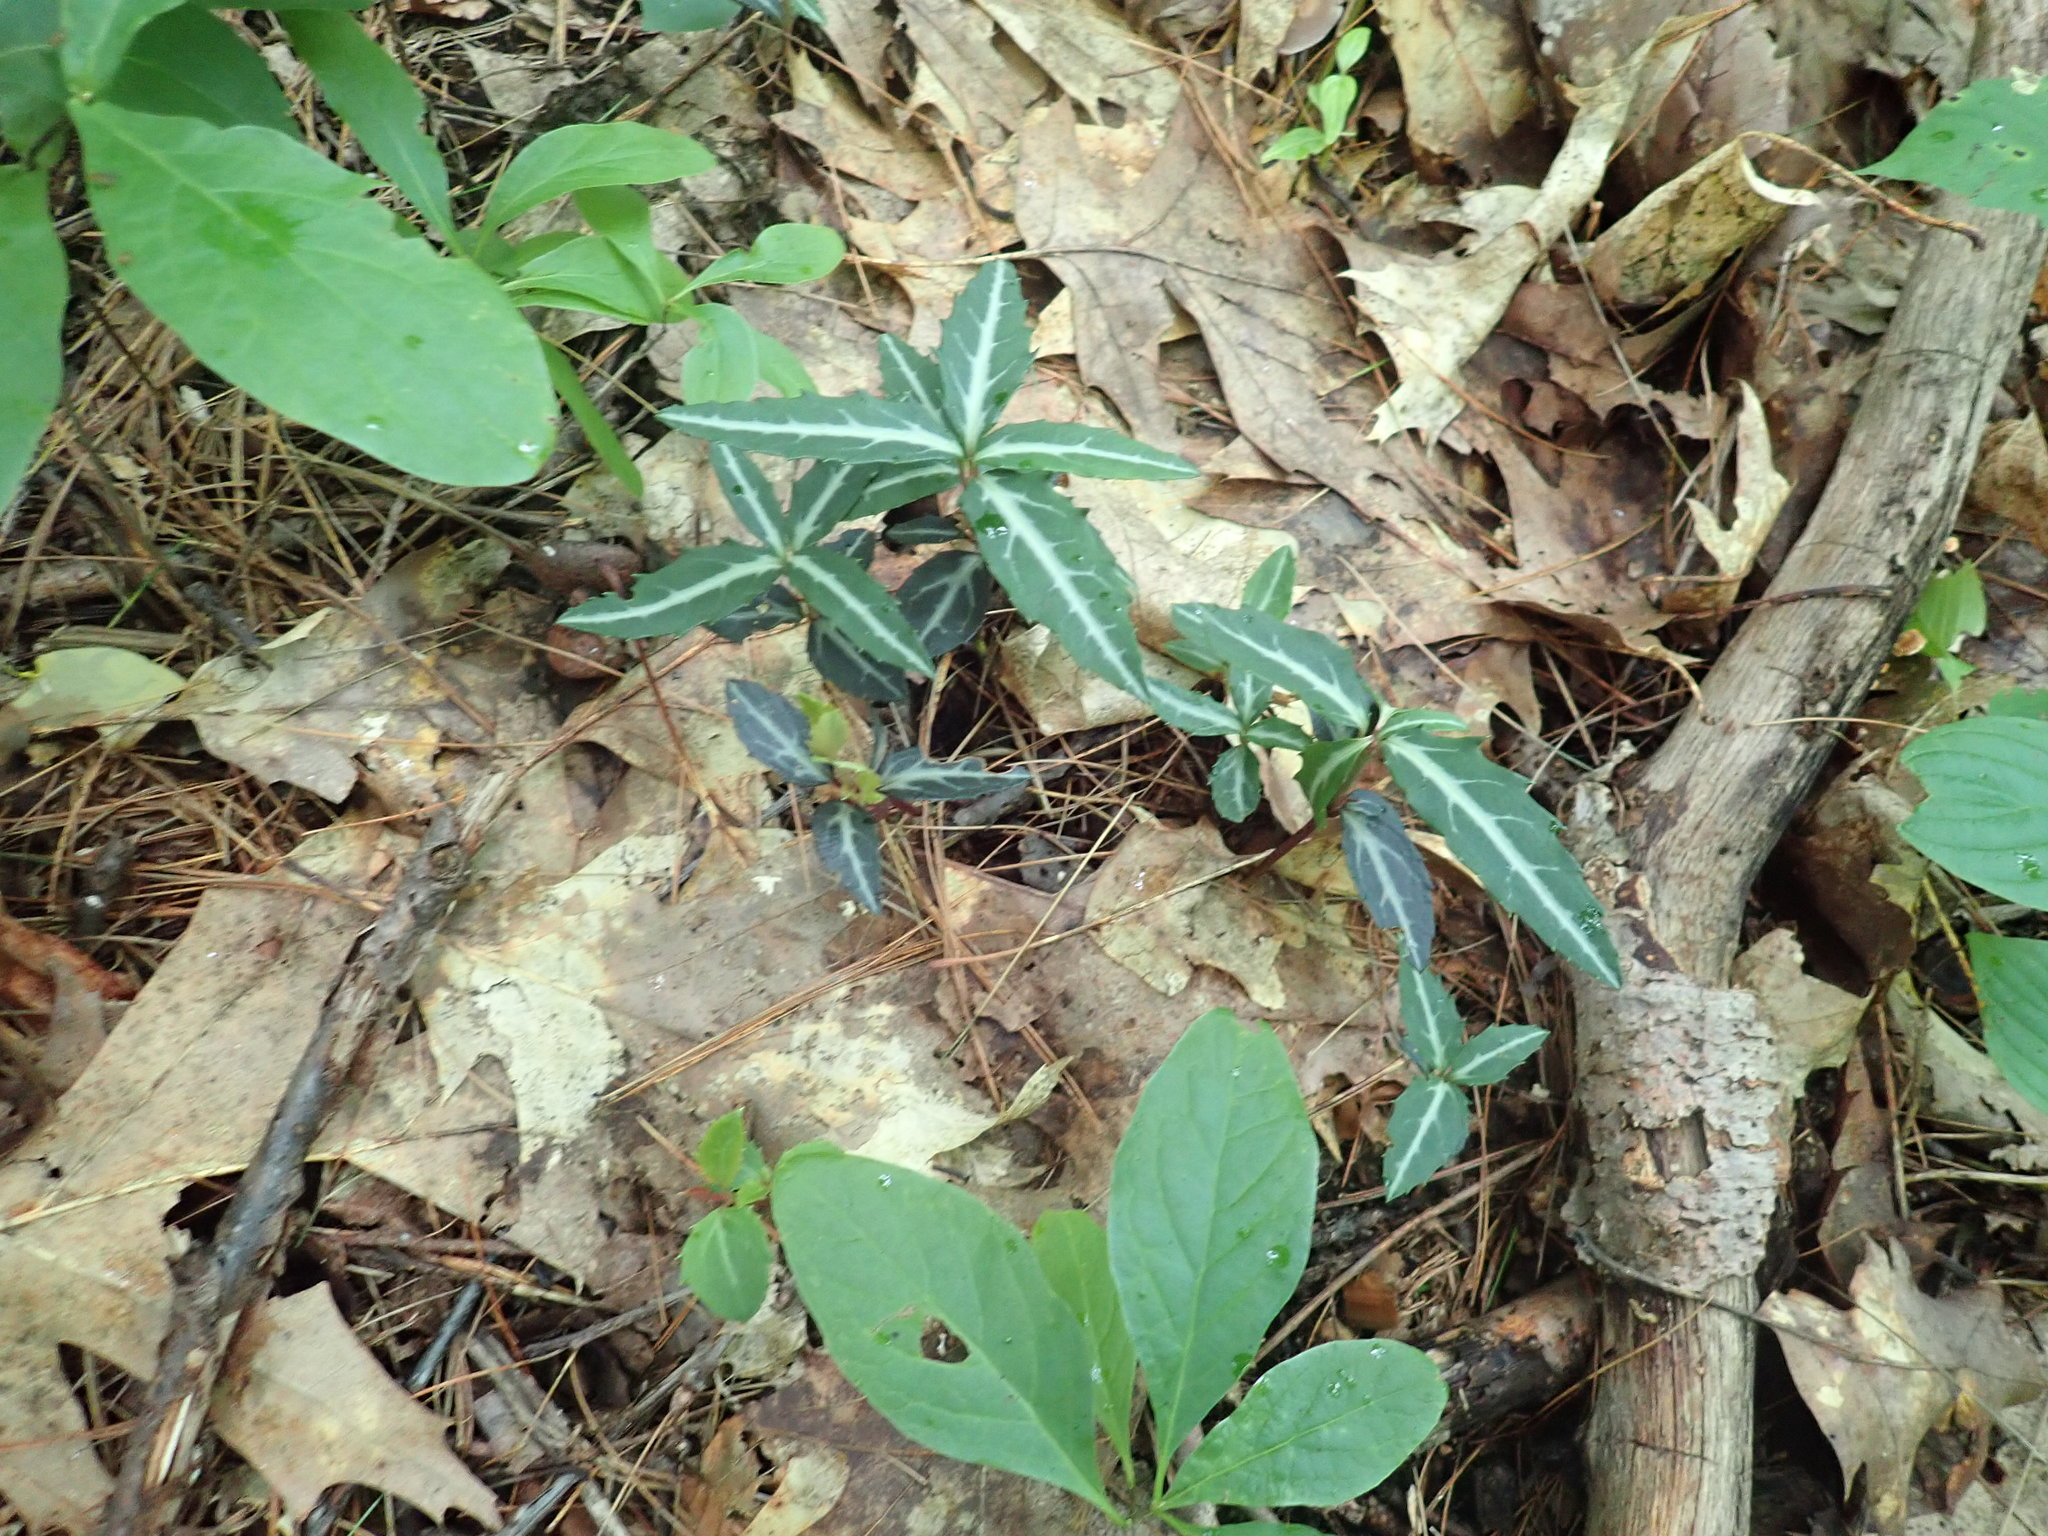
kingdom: Plantae
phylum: Tracheophyta
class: Magnoliopsida
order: Ericales
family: Ericaceae
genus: Chimaphila
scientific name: Chimaphila maculata
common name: Spotted pipsissewa
